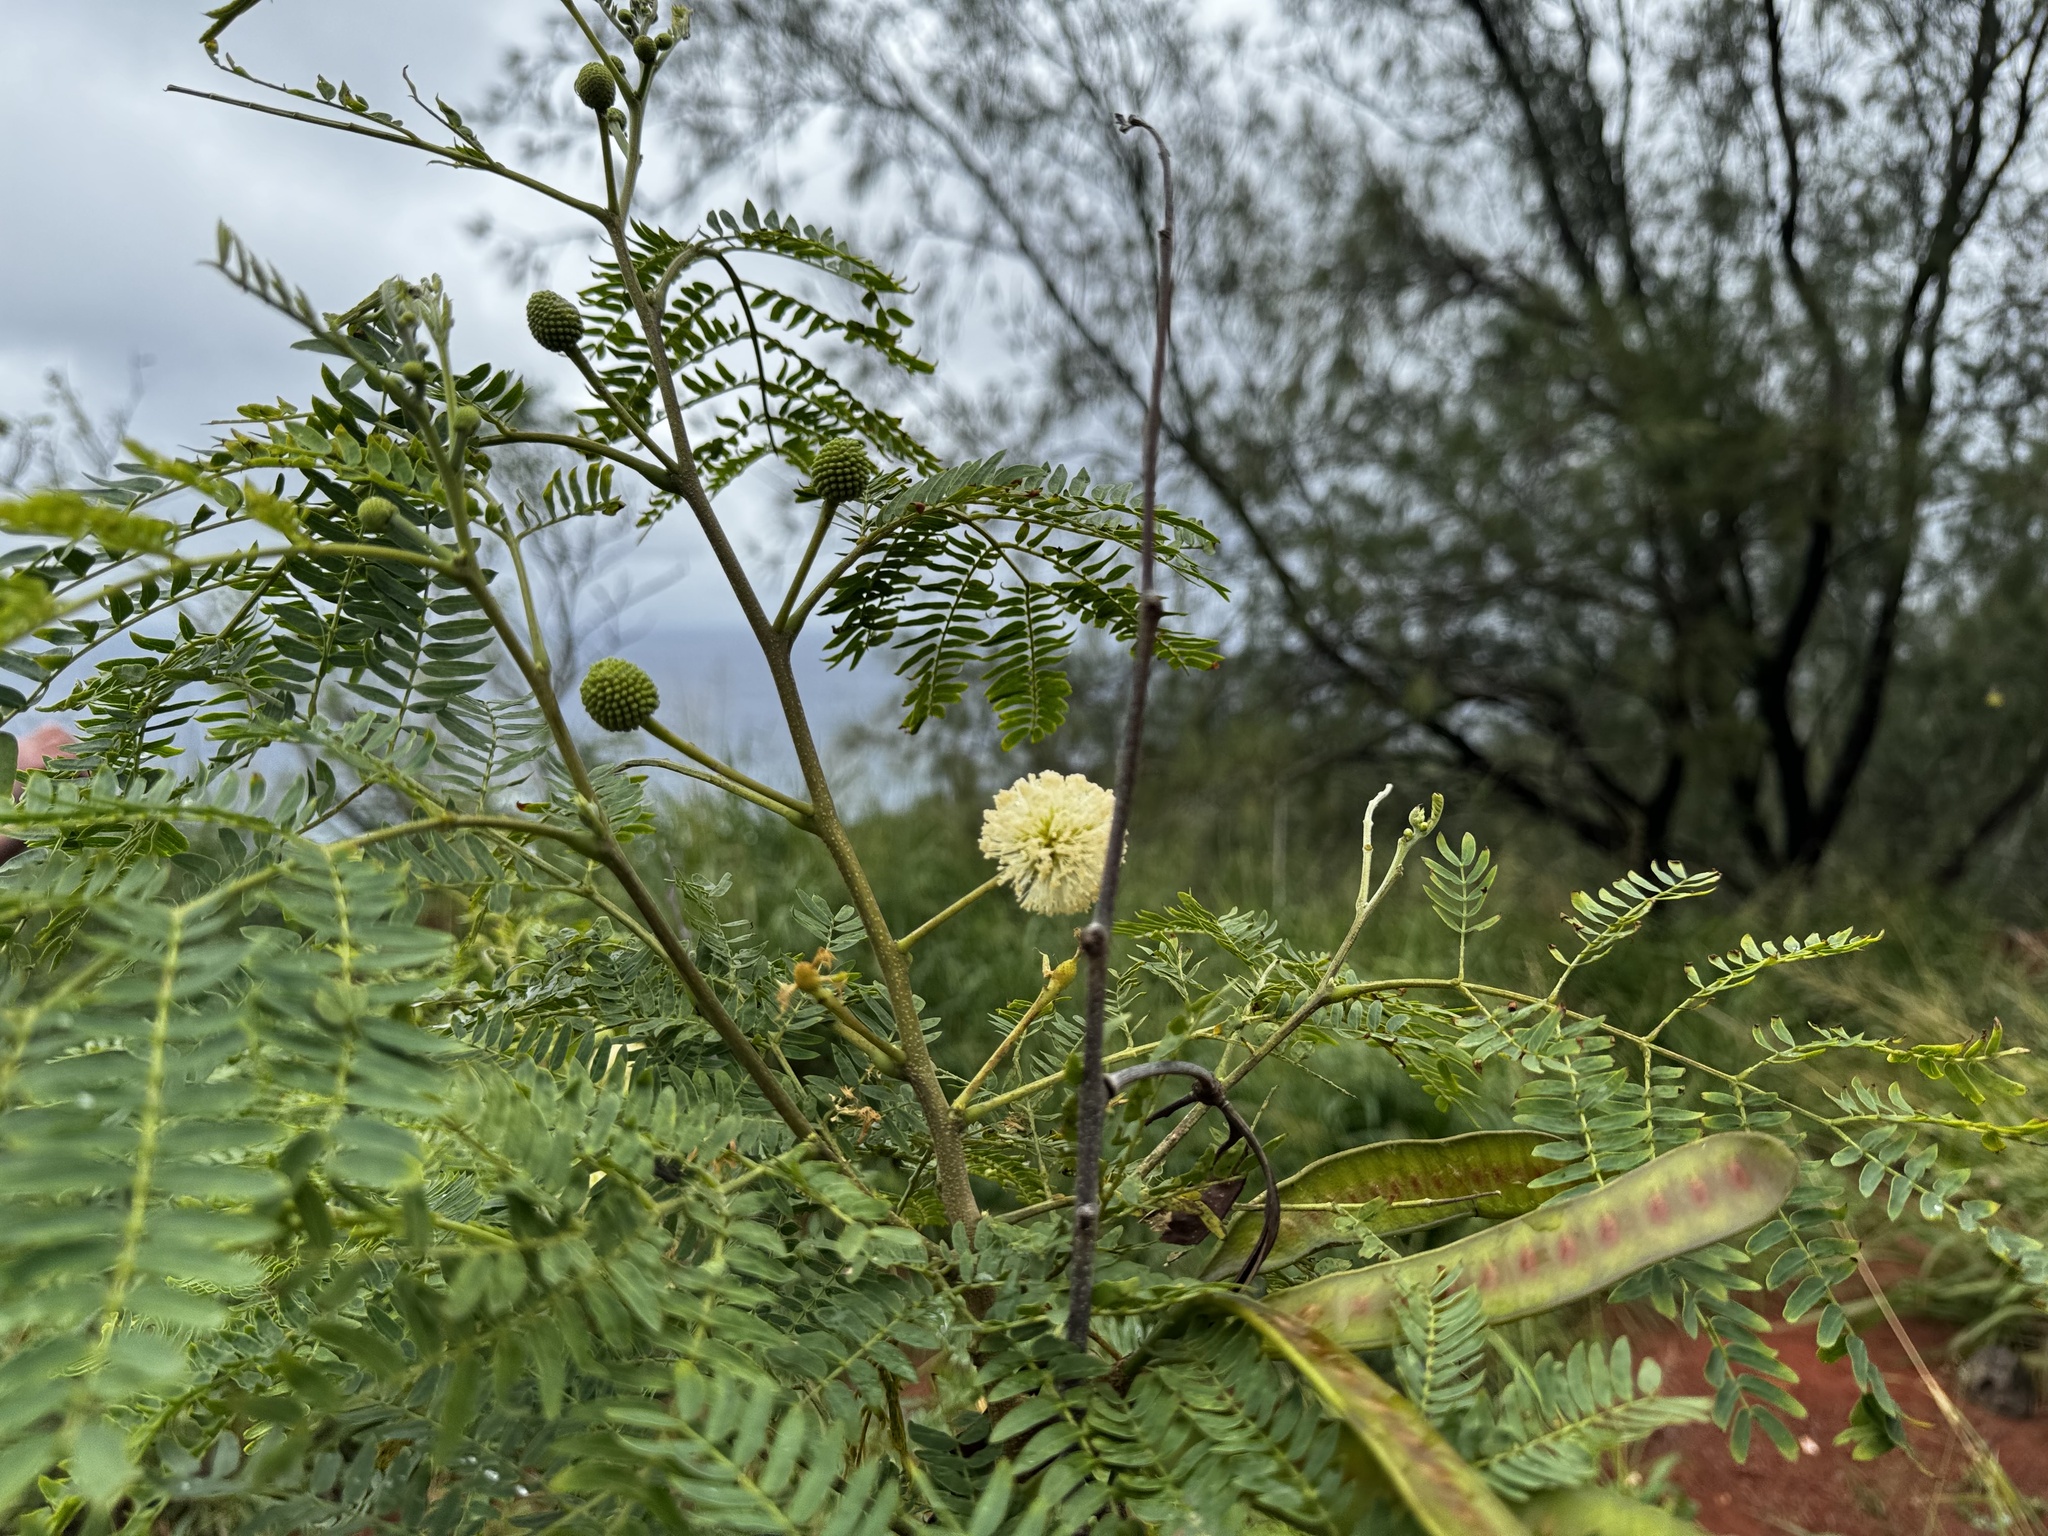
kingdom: Plantae
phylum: Tracheophyta
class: Magnoliopsida
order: Fabales
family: Fabaceae
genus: Leucaena
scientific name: Leucaena leucocephala
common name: White leadtree
